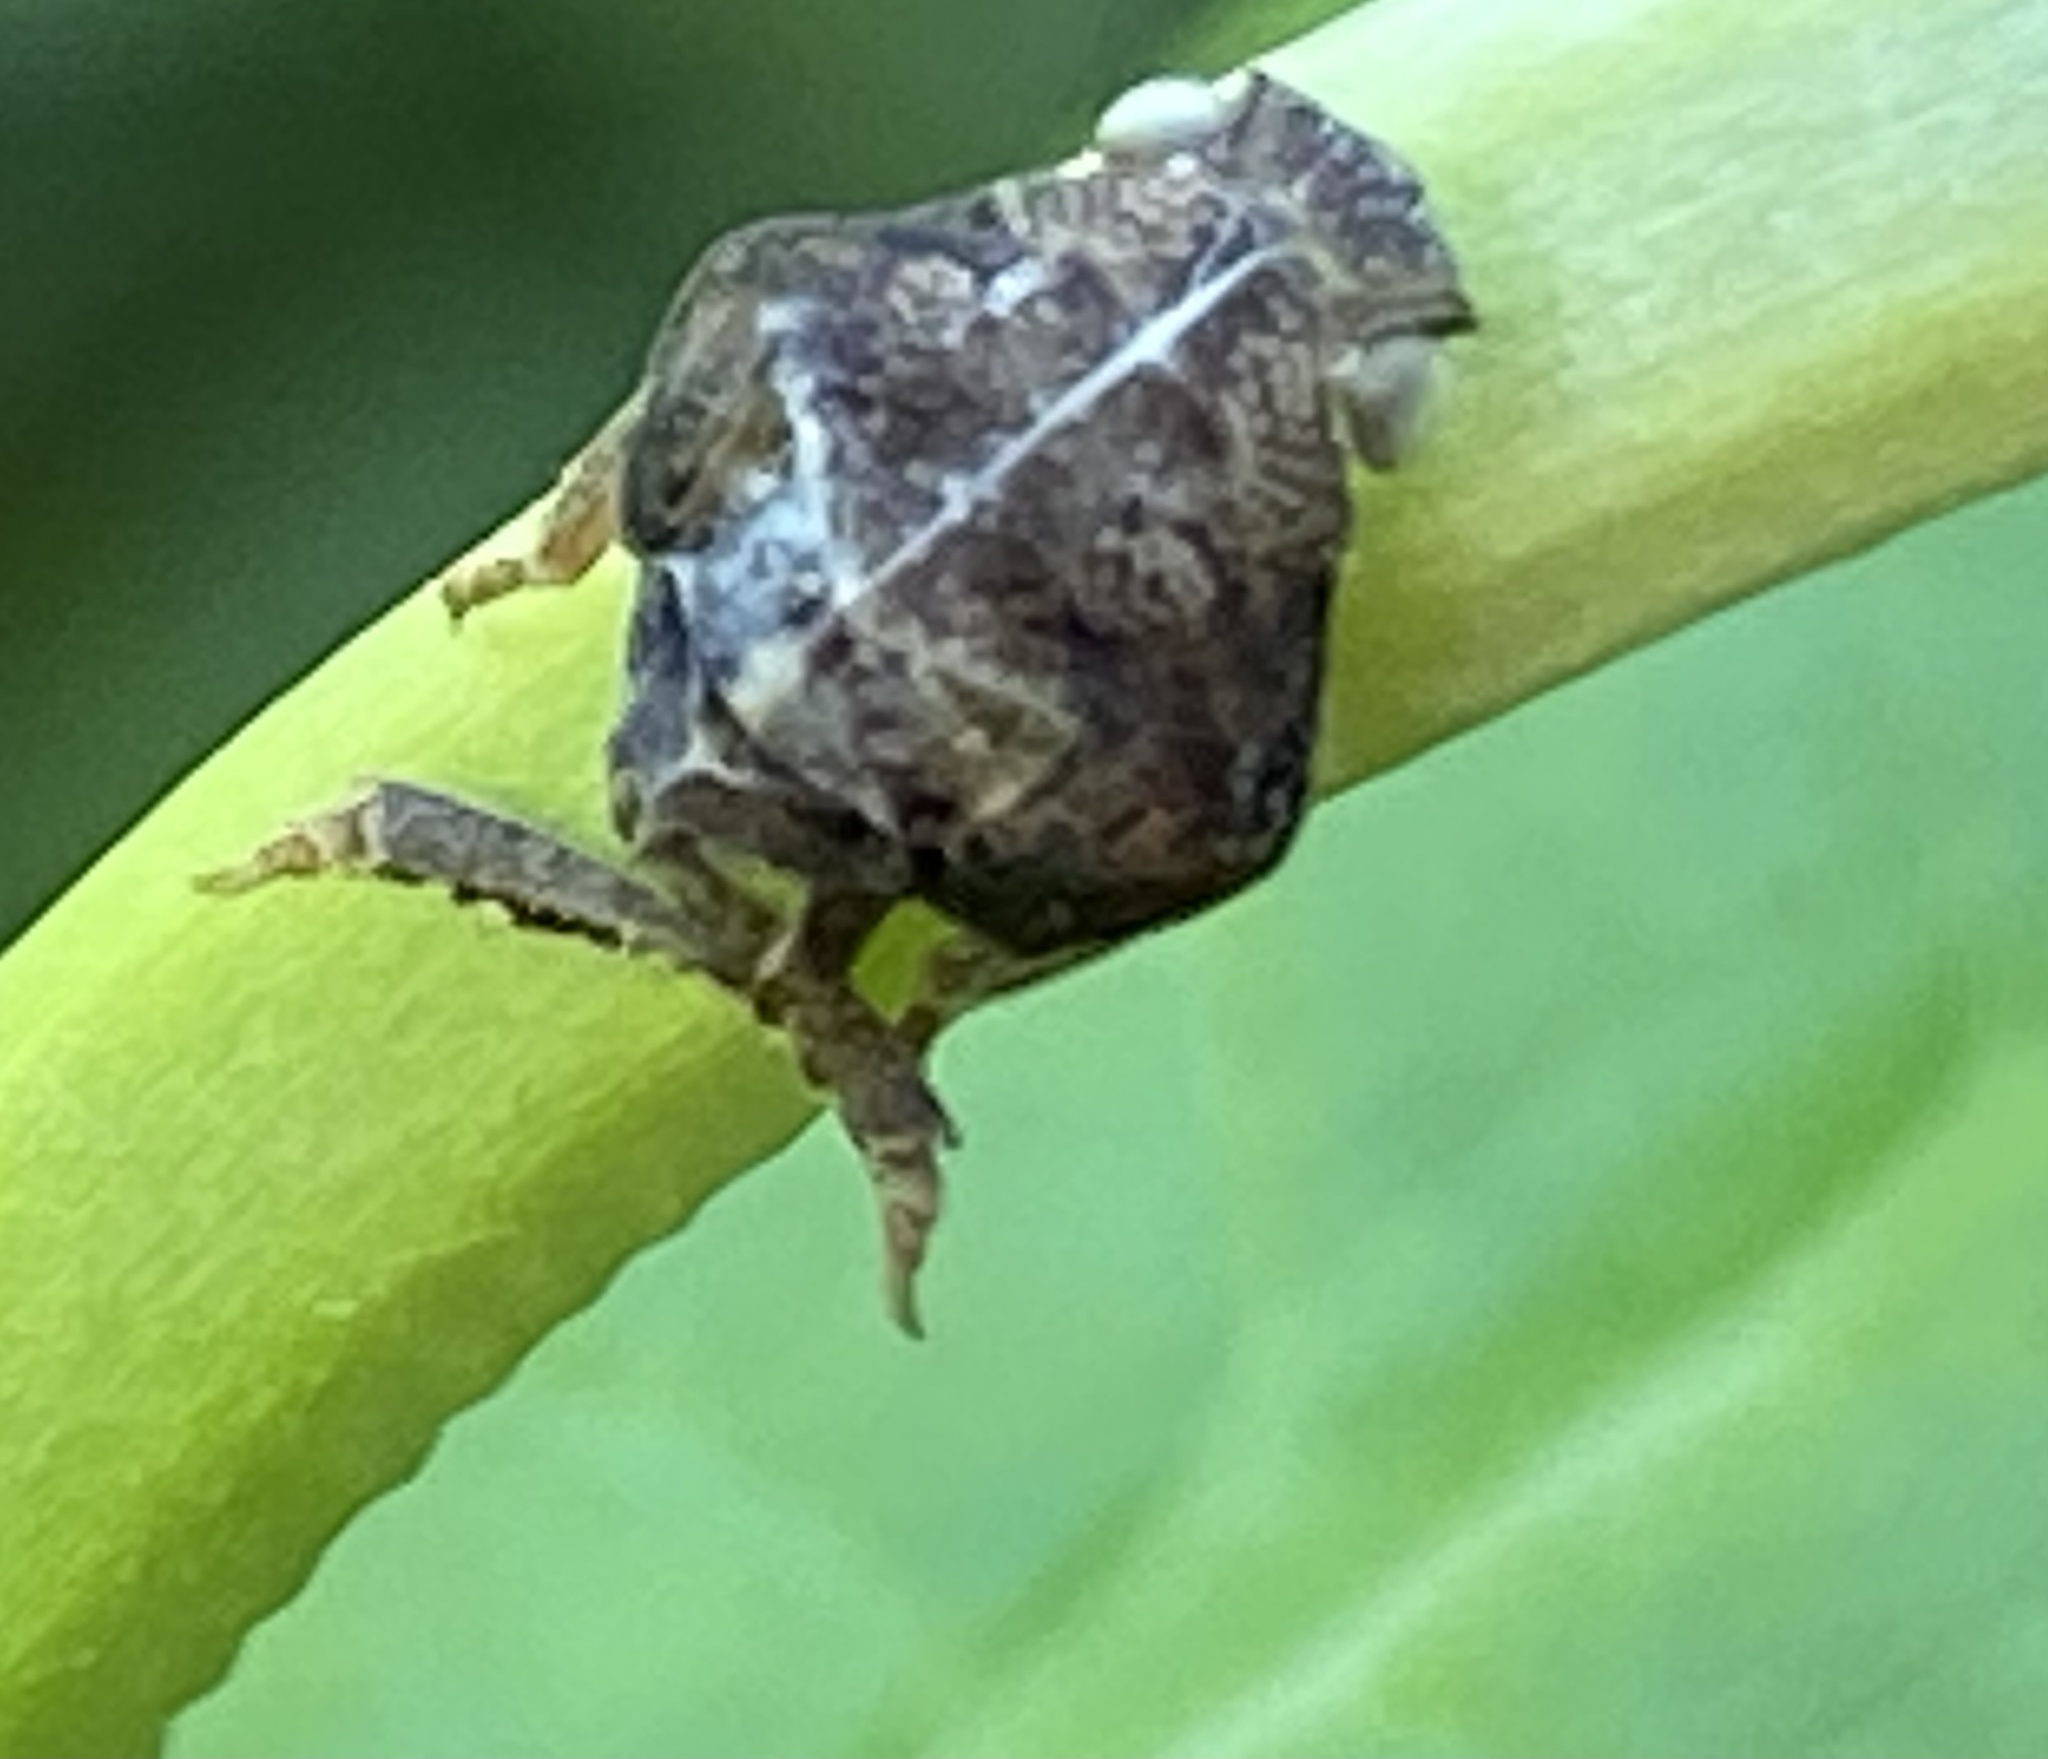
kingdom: Animalia
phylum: Arthropoda
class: Insecta
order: Hemiptera
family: Acanaloniidae
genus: Acanalonia
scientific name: Acanalonia bivittata
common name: Two-striped planthopper
